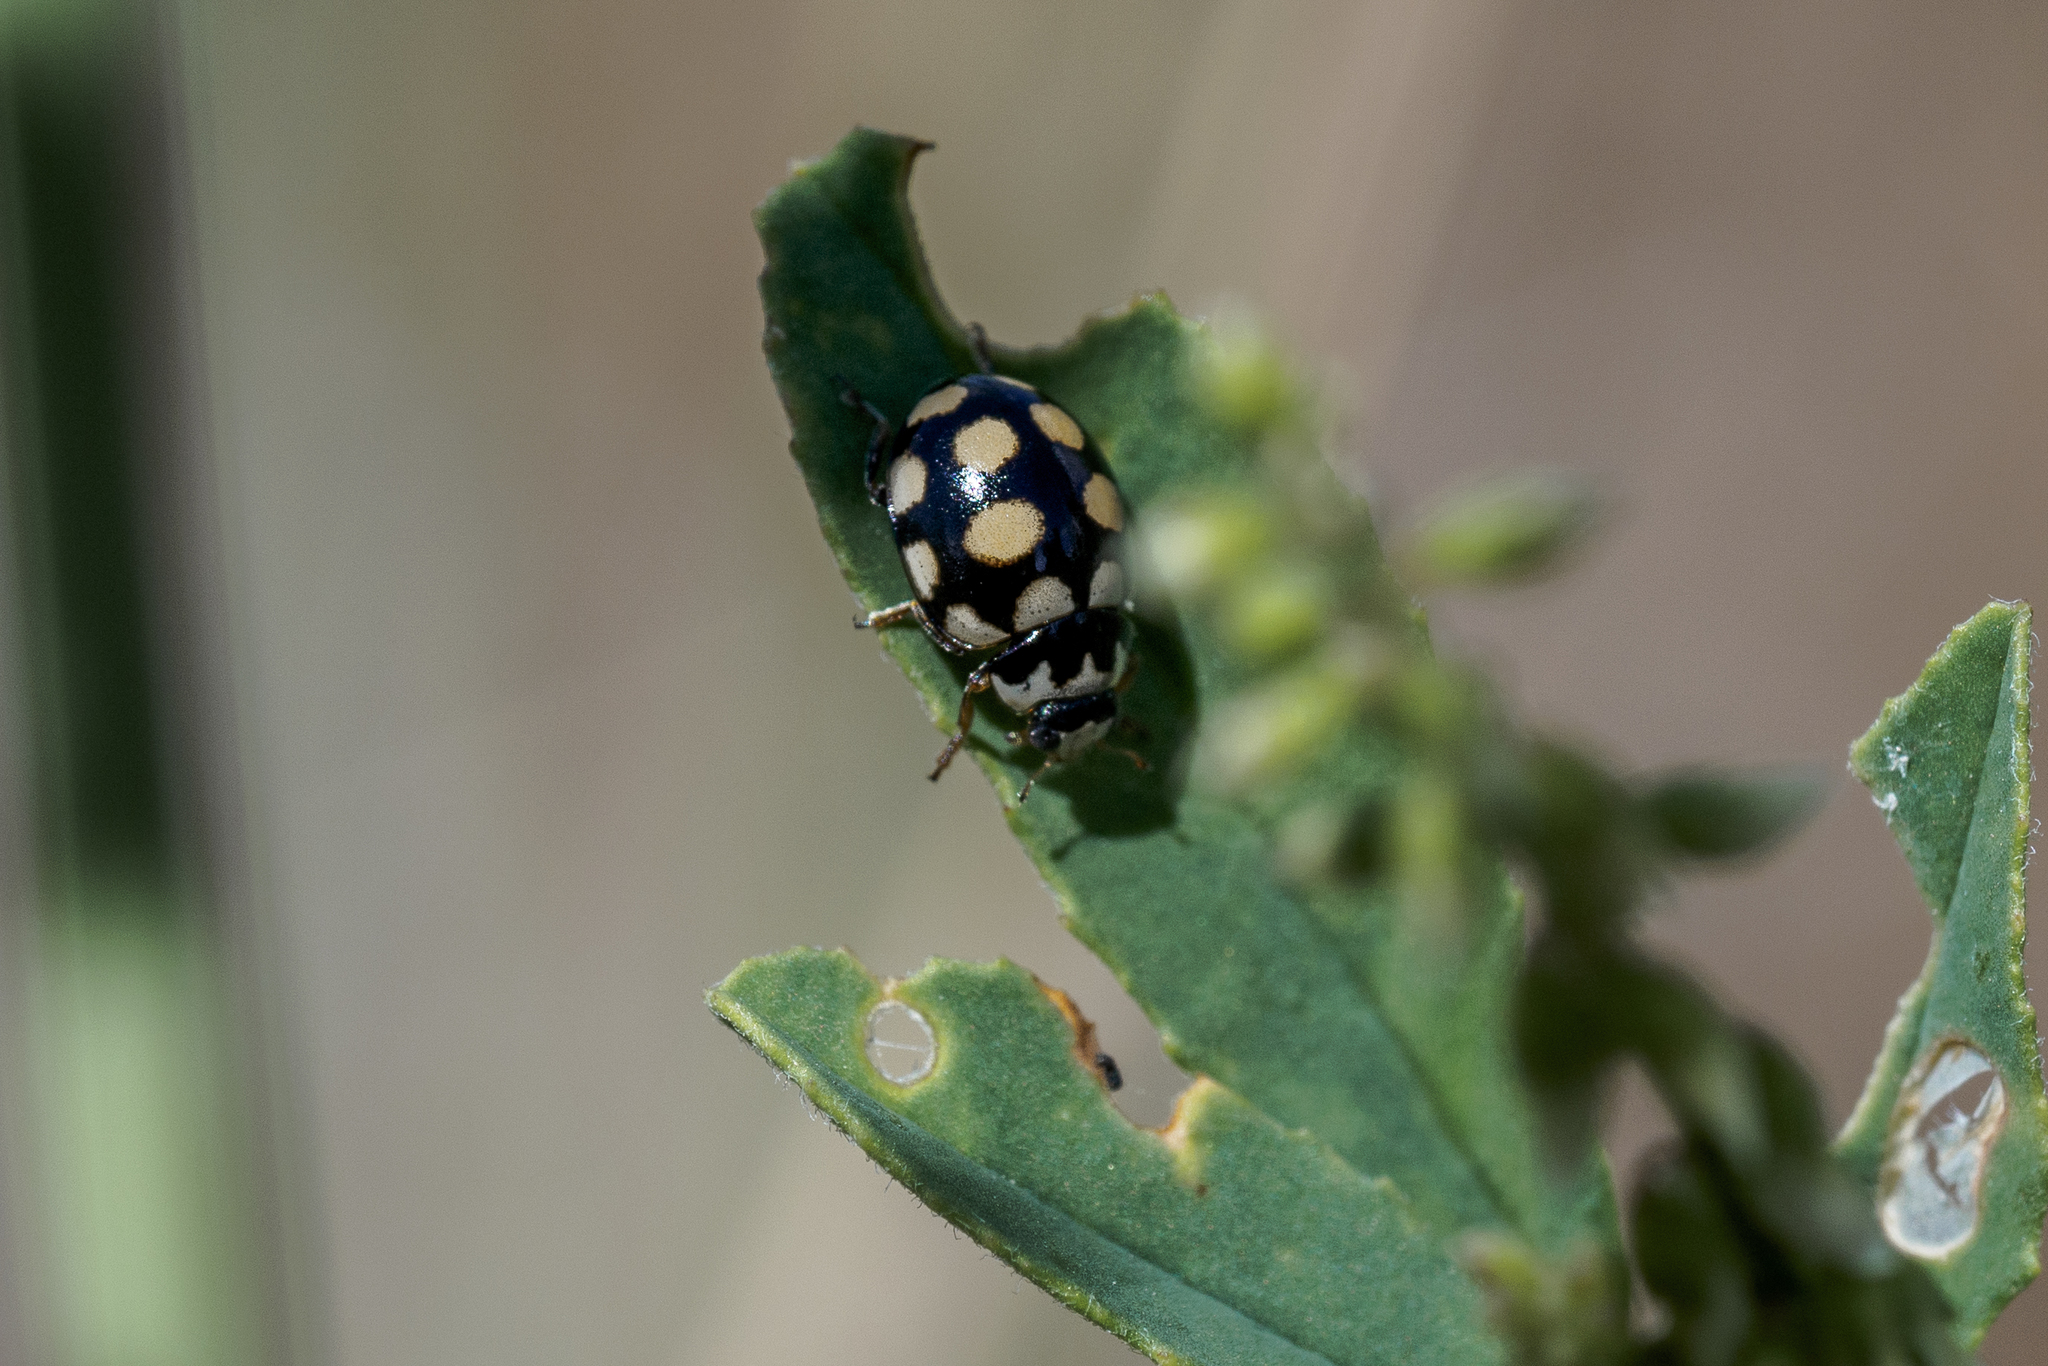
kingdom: Animalia
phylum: Arthropoda
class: Insecta
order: Coleoptera
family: Coccinellidae
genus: Coccinula
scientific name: Coccinula quatuordecimpustulata
